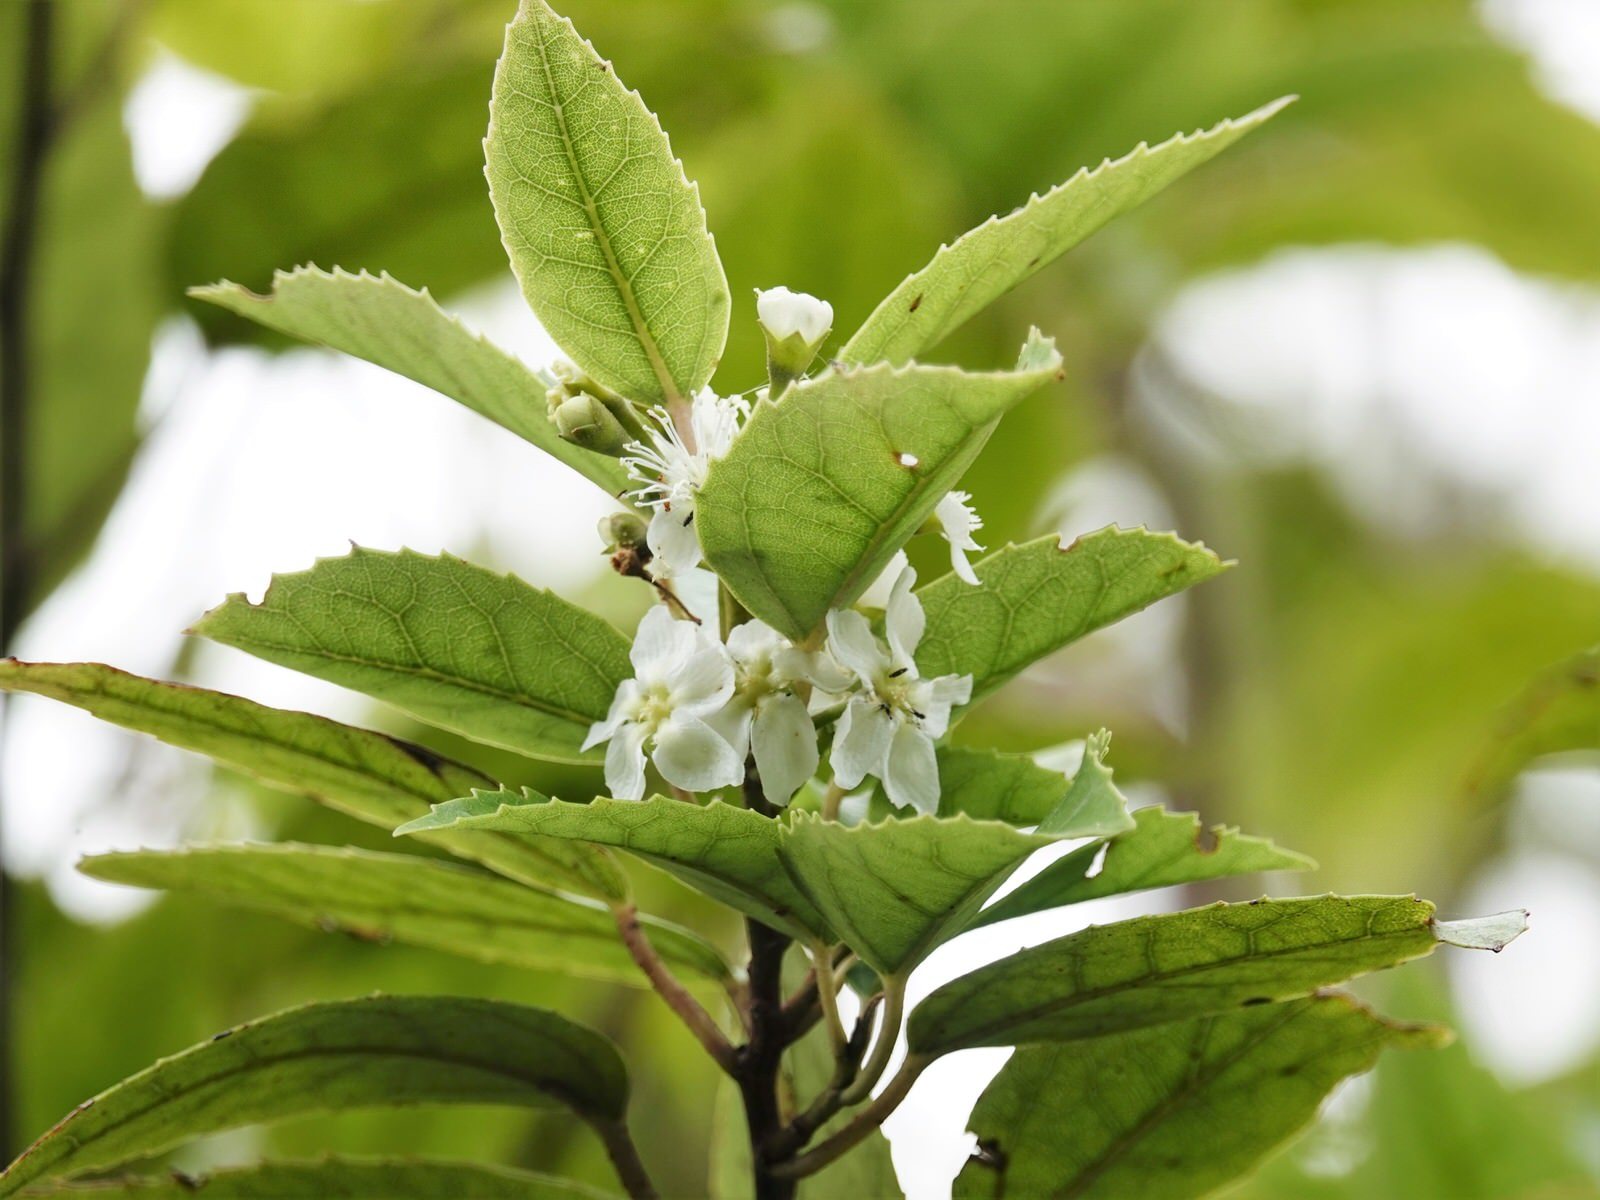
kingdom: Plantae
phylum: Tracheophyta
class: Magnoliopsida
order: Malvales
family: Malvaceae
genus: Hoheria
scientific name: Hoheria populnea
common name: Lacebark
